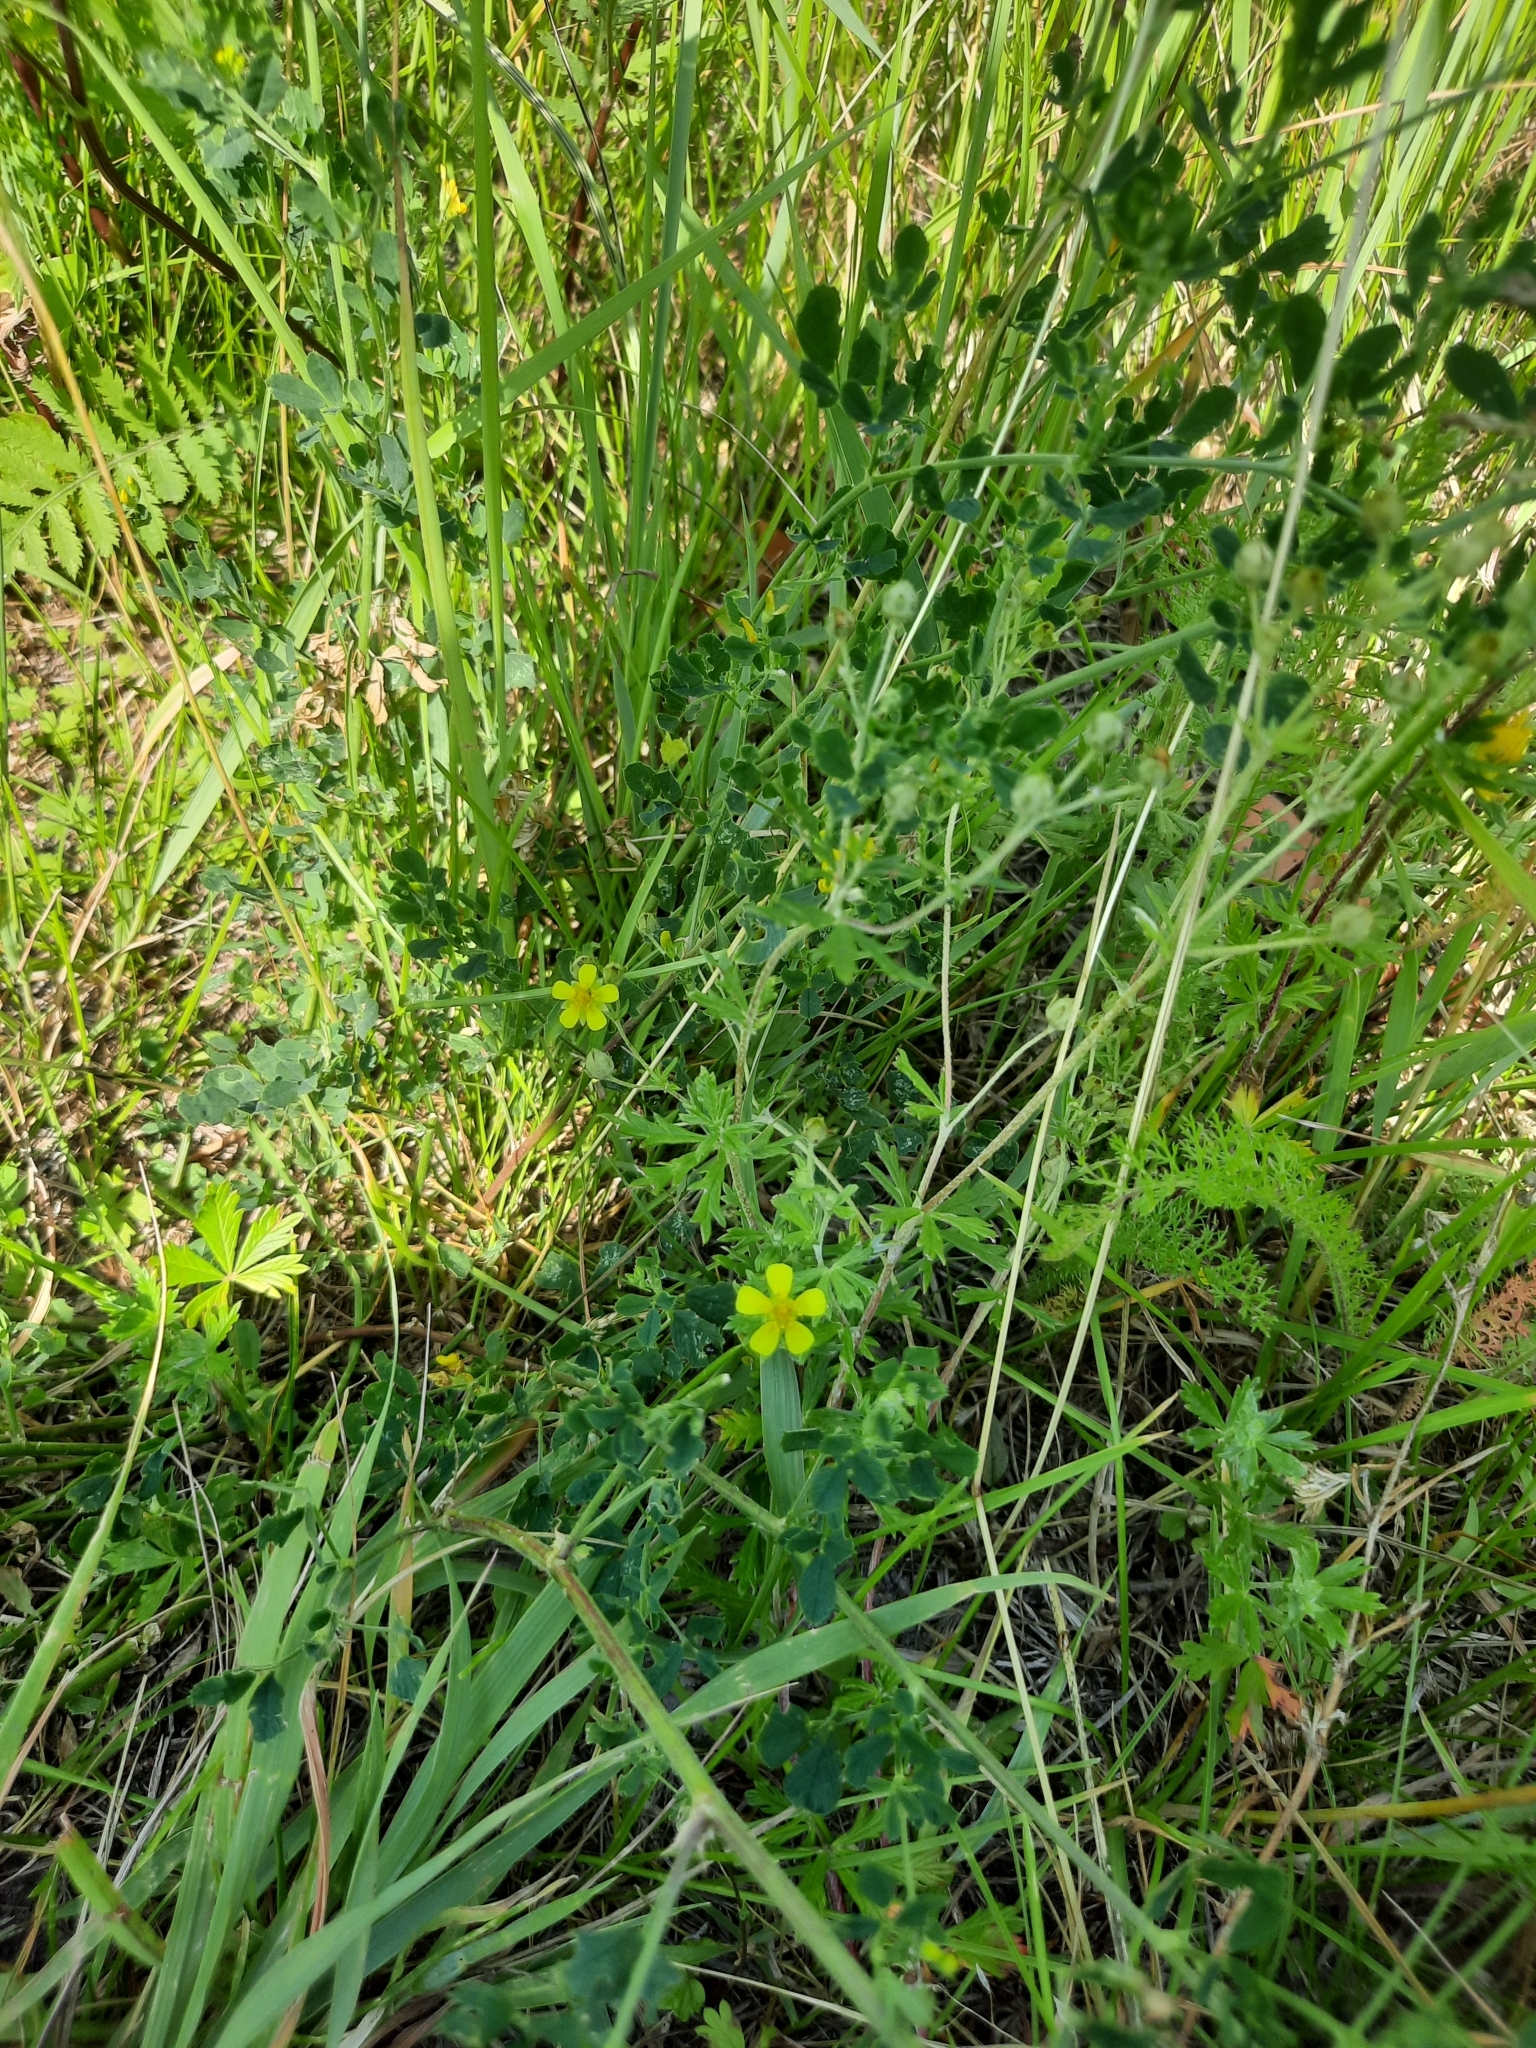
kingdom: Plantae
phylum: Tracheophyta
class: Magnoliopsida
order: Rosales
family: Rosaceae
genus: Potentilla
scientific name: Potentilla argentea
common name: Hoary cinquefoil
